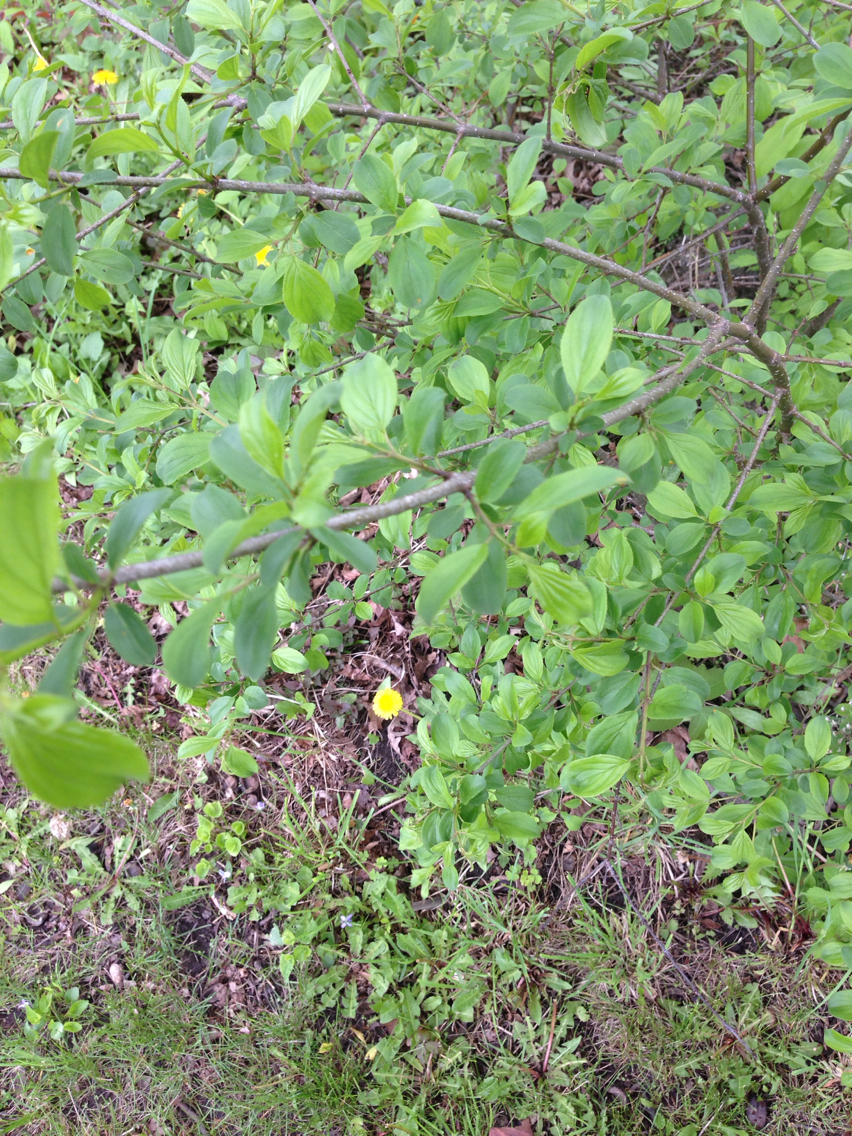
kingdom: Plantae
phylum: Tracheophyta
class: Magnoliopsida
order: Rosales
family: Rhamnaceae
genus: Rhamnus
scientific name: Rhamnus cathartica
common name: Common buckthorn
